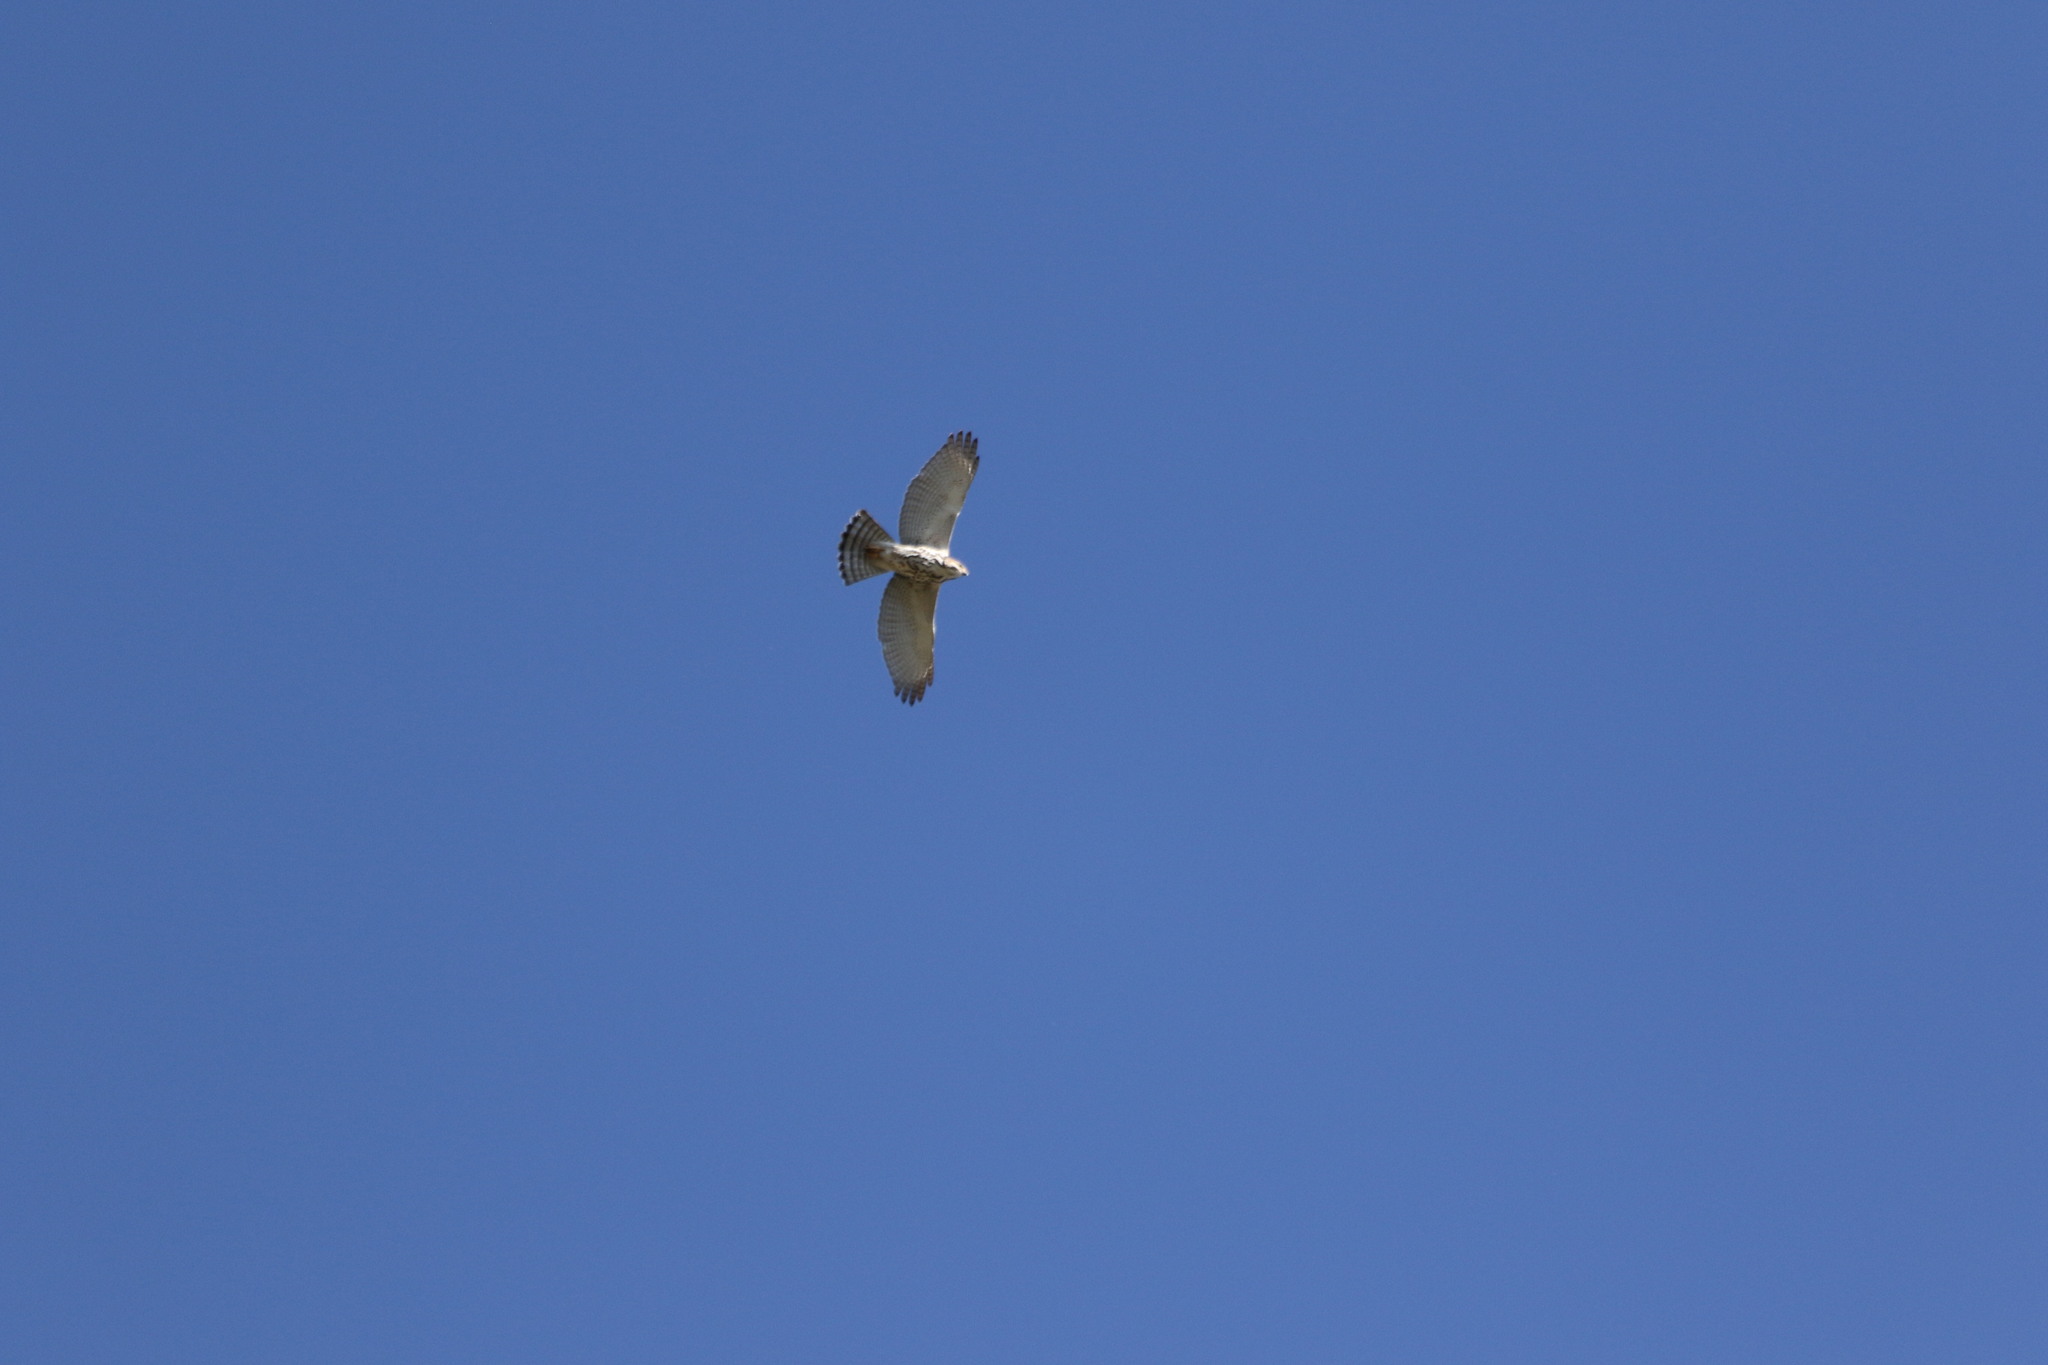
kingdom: Animalia
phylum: Chordata
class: Aves
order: Accipitriformes
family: Accipitridae
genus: Buteo
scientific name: Buteo nitidus
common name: Grey-lined hawk
